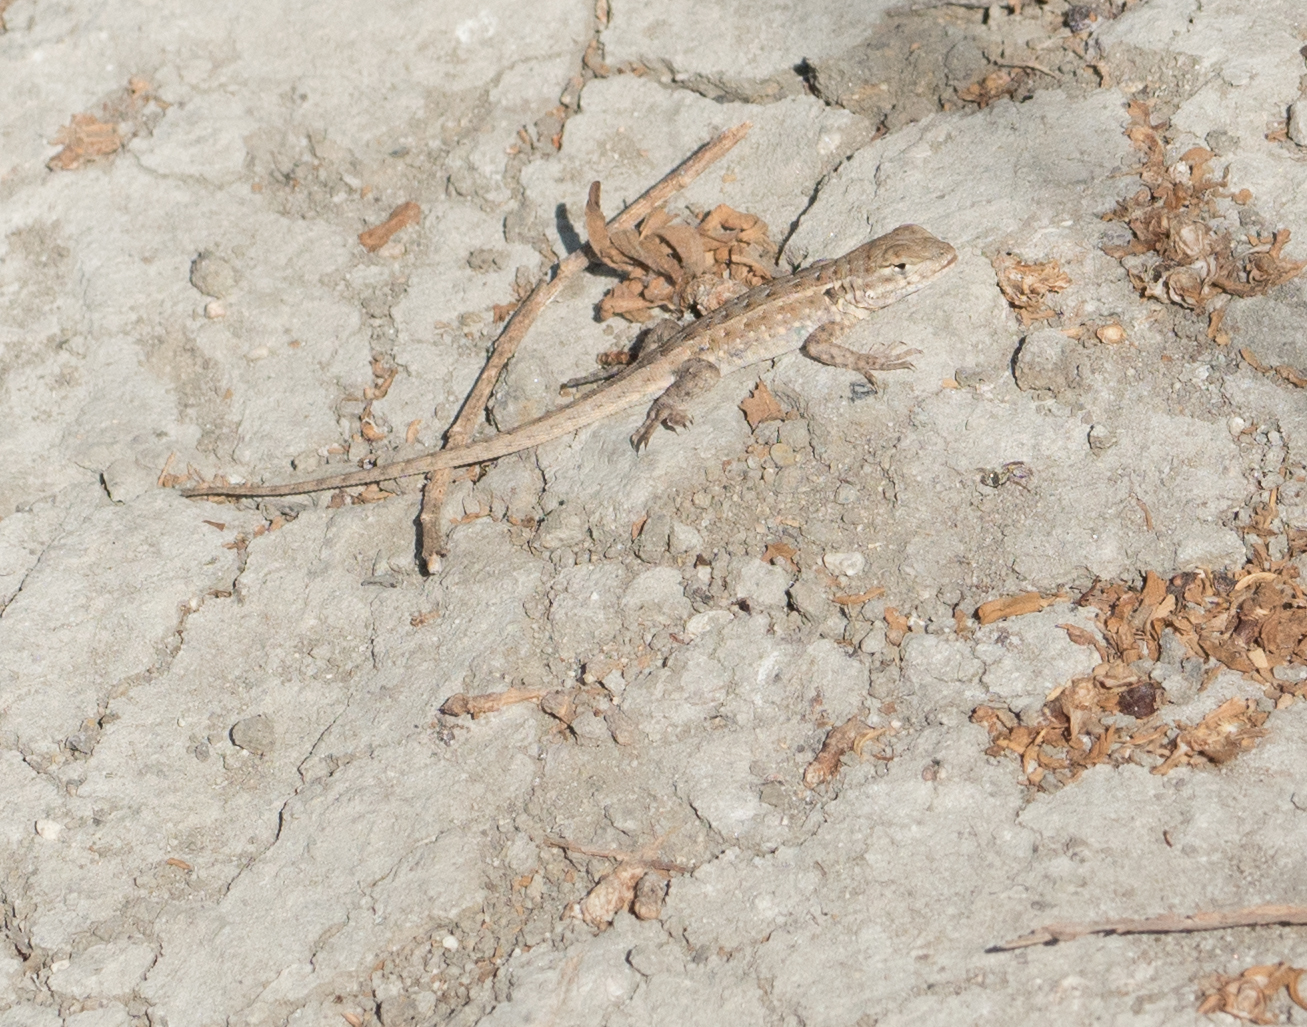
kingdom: Animalia
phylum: Chordata
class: Squamata
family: Phrynosomatidae
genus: Uta
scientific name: Uta stansburiana
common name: Side-blotched lizard
